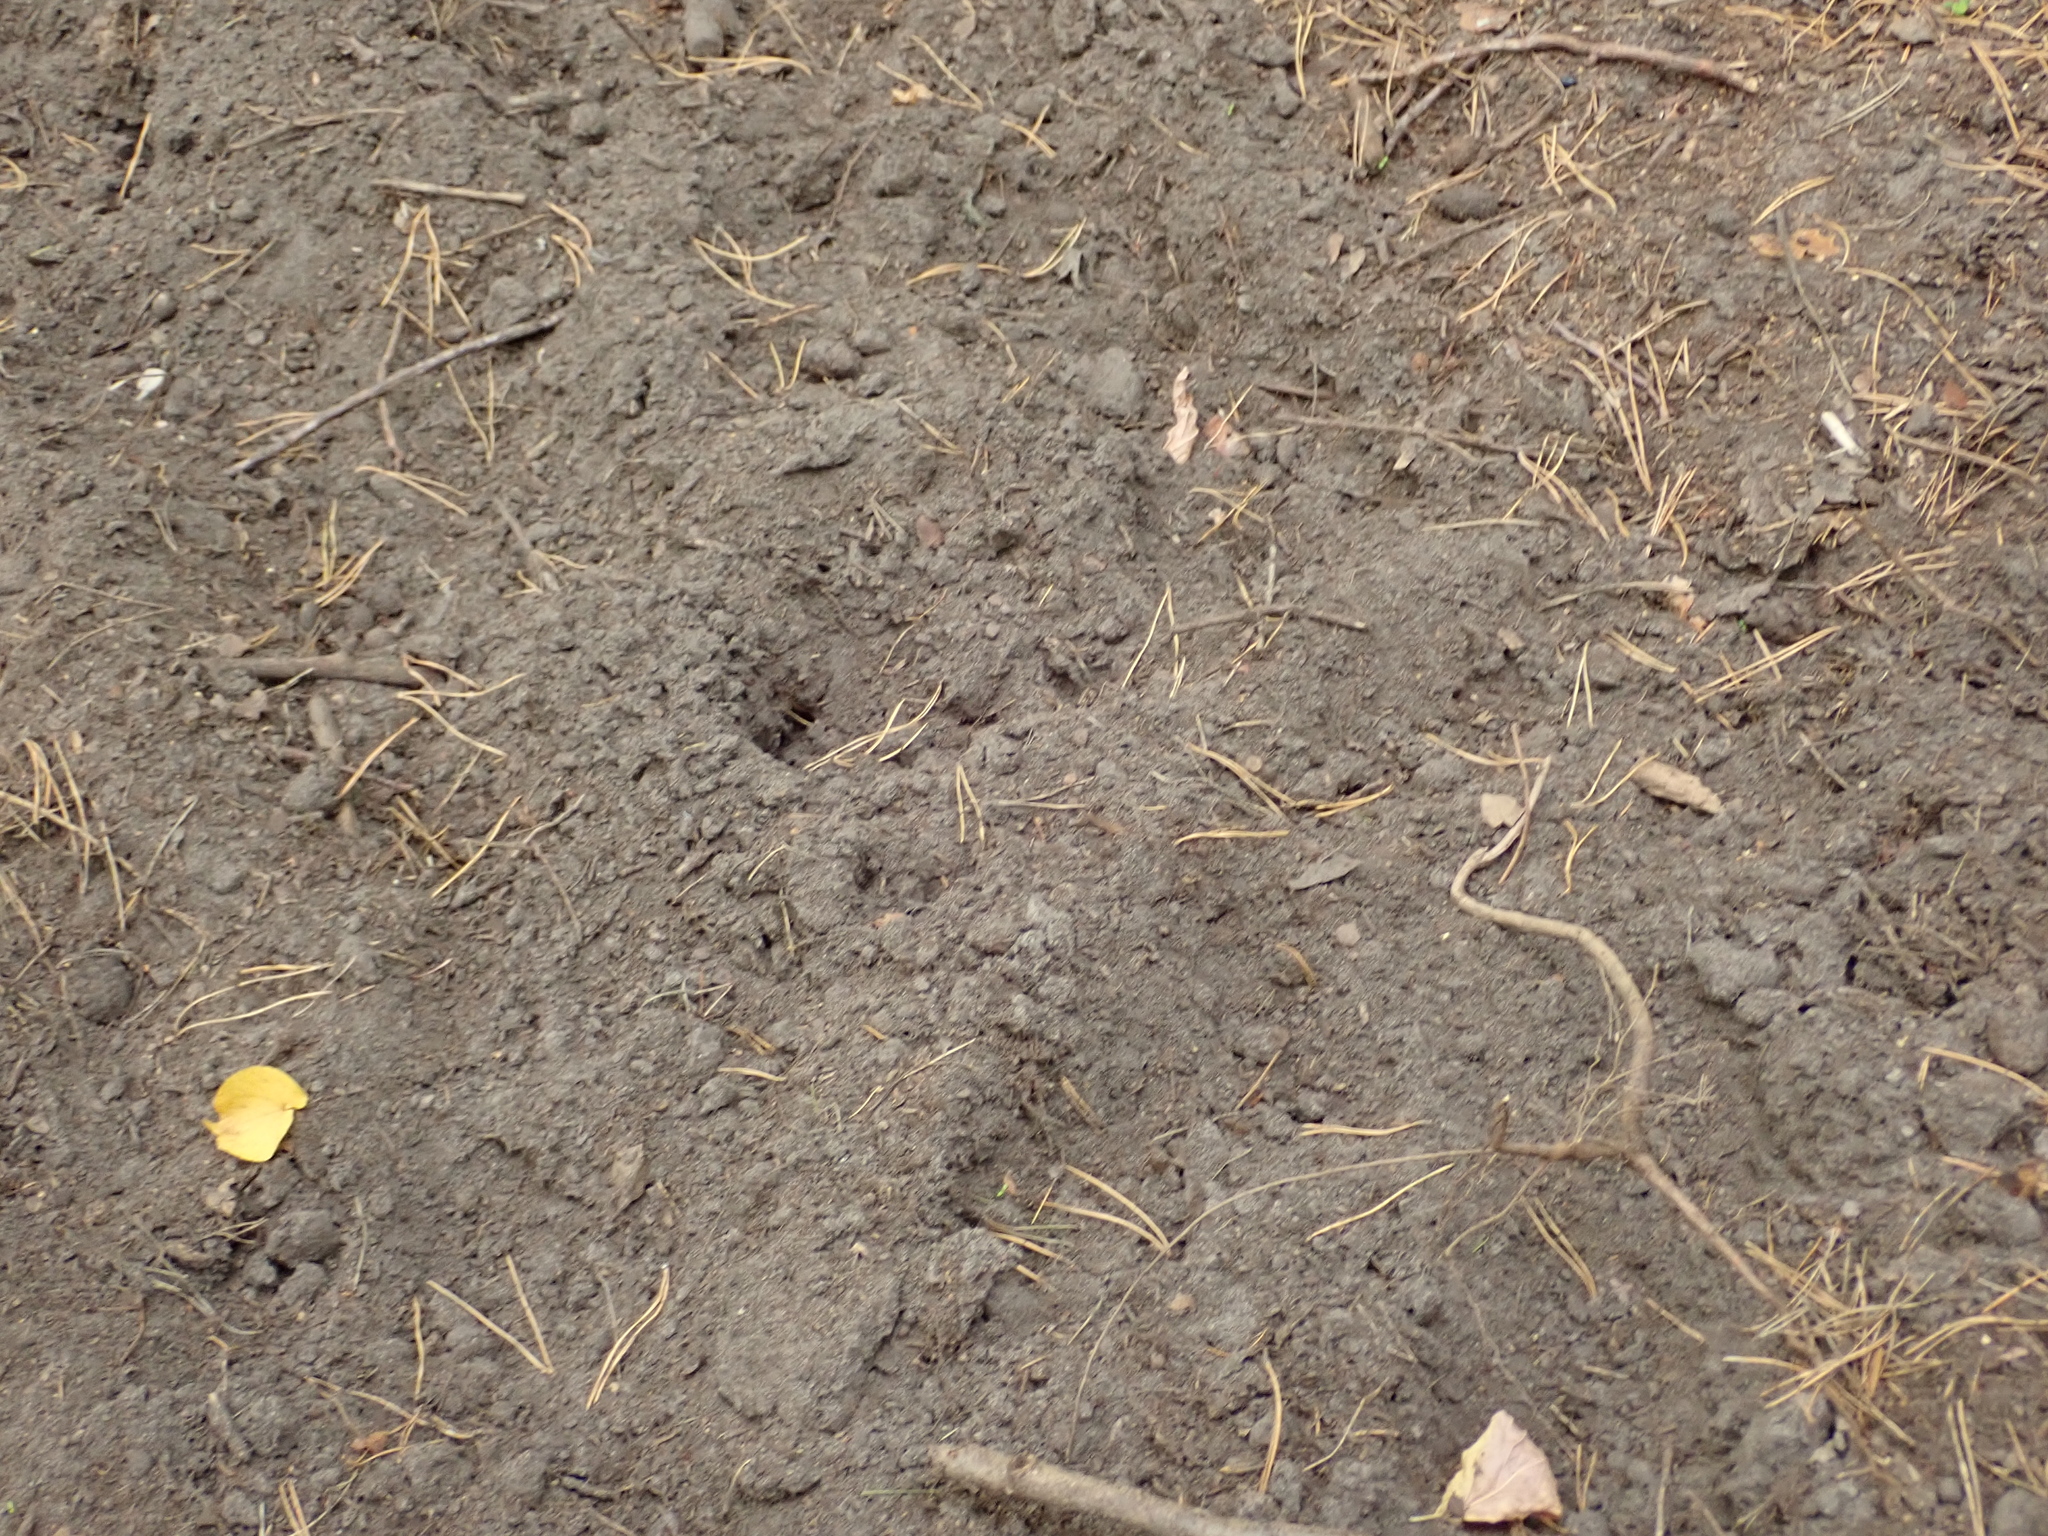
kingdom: Animalia
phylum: Chordata
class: Mammalia
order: Artiodactyla
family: Suidae
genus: Sus
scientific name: Sus scrofa
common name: Wild boar
